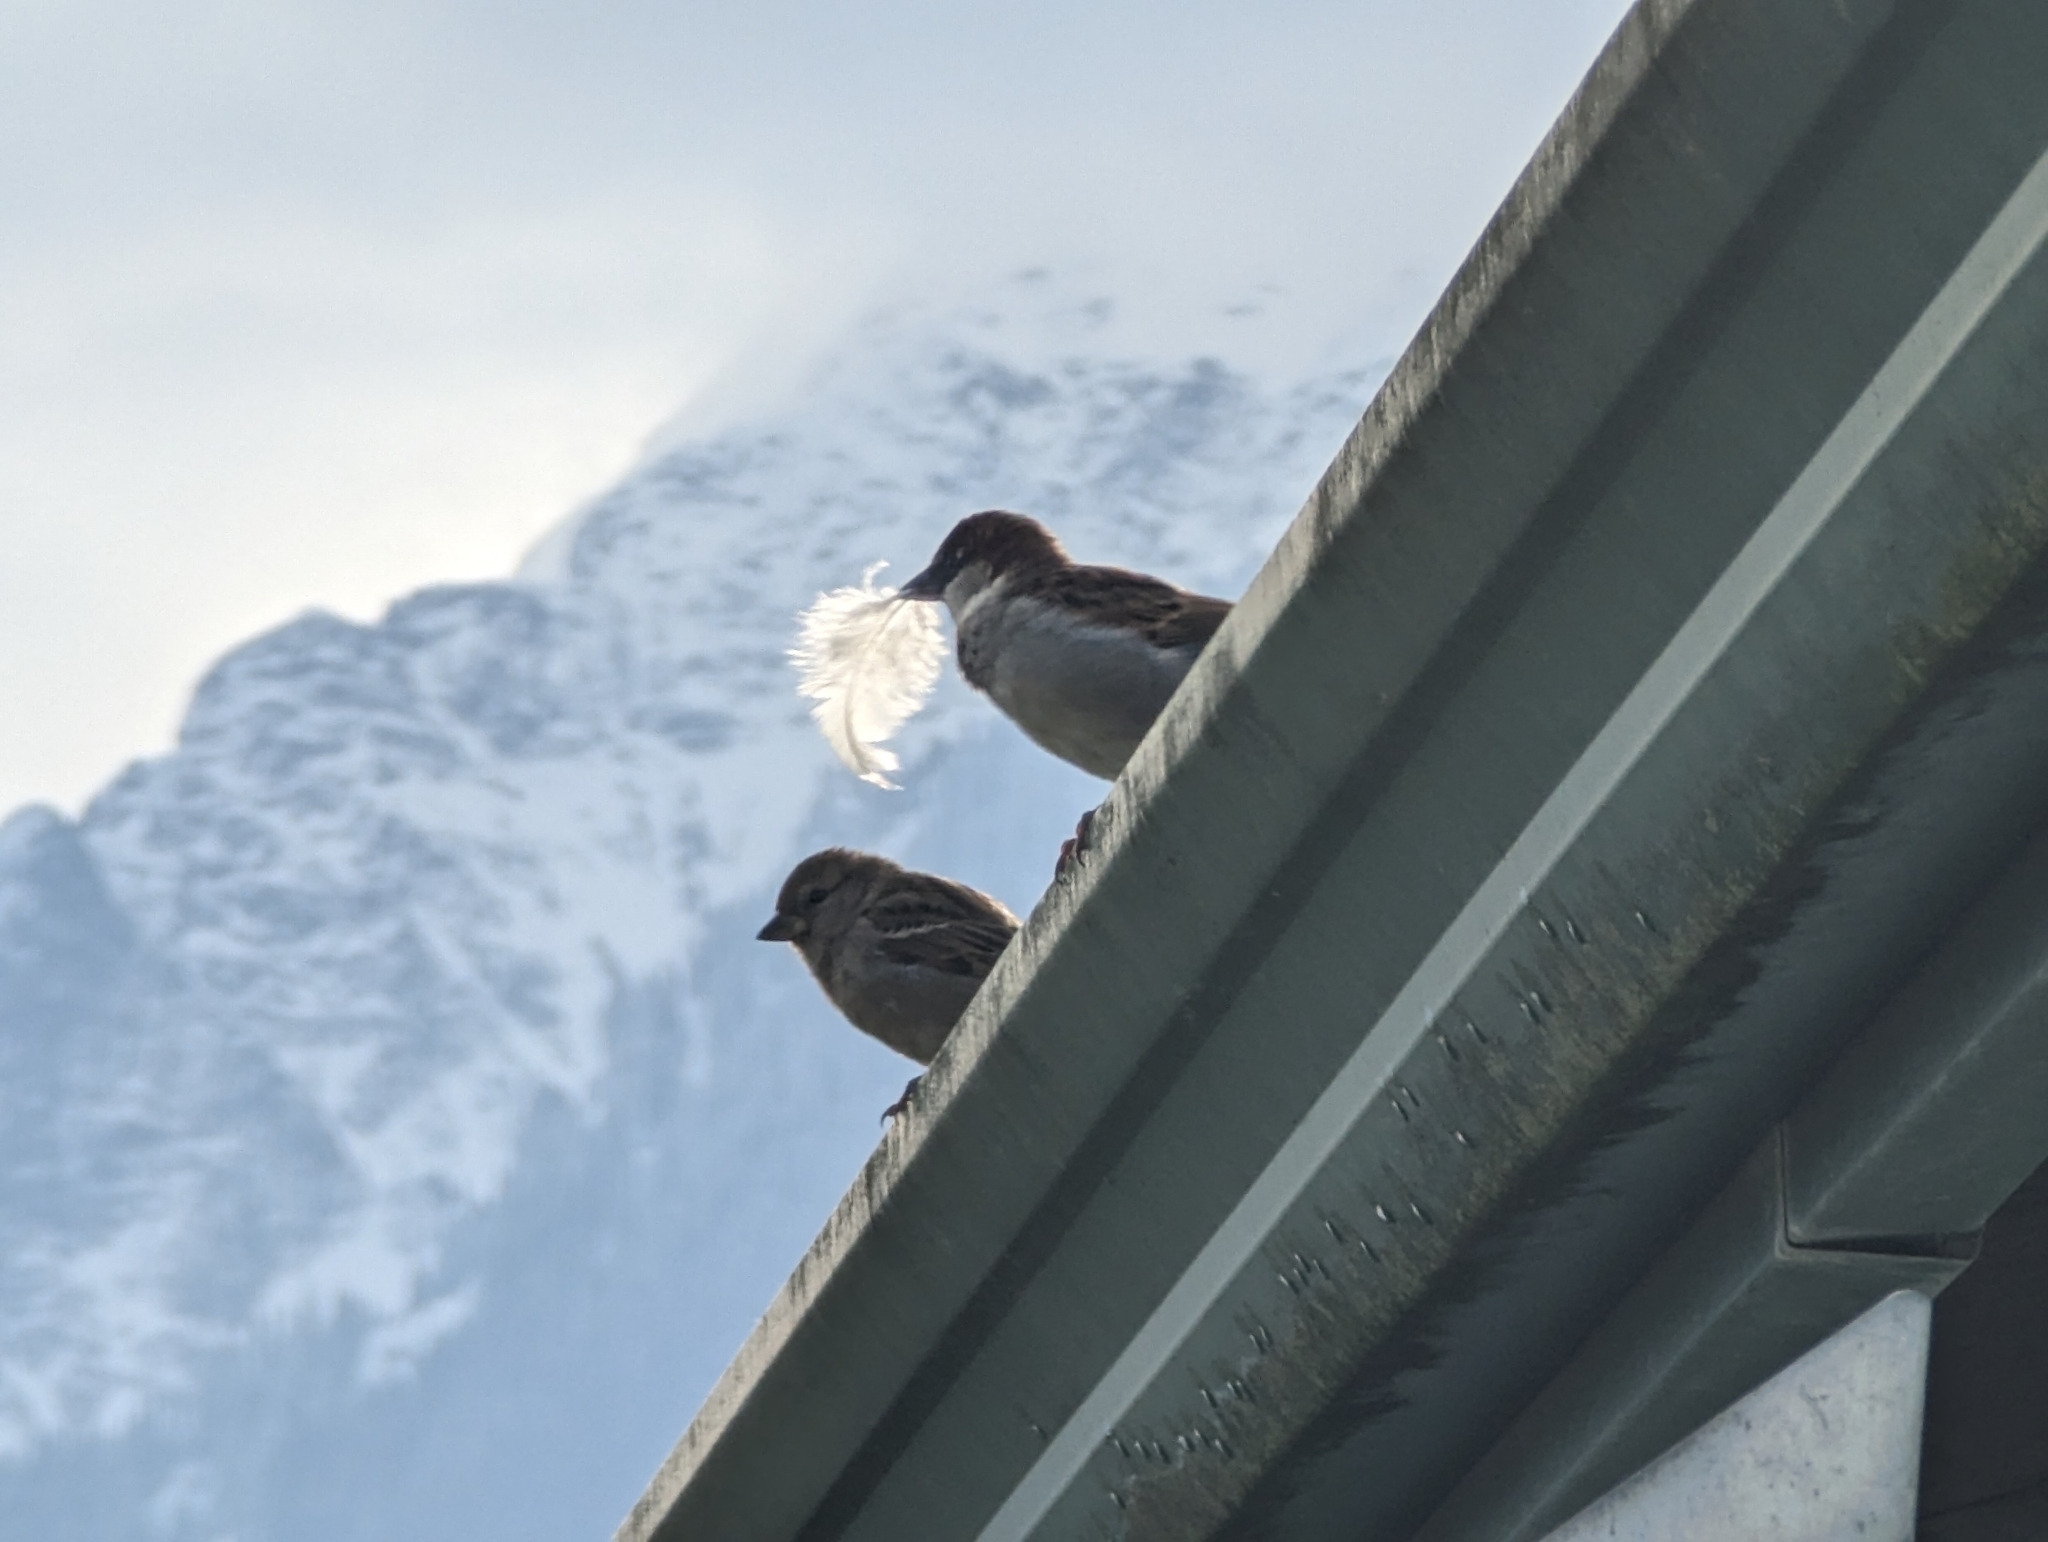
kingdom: Animalia
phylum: Chordata
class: Aves
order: Passeriformes
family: Passeridae
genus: Passer
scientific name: Passer domesticus
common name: House sparrow
